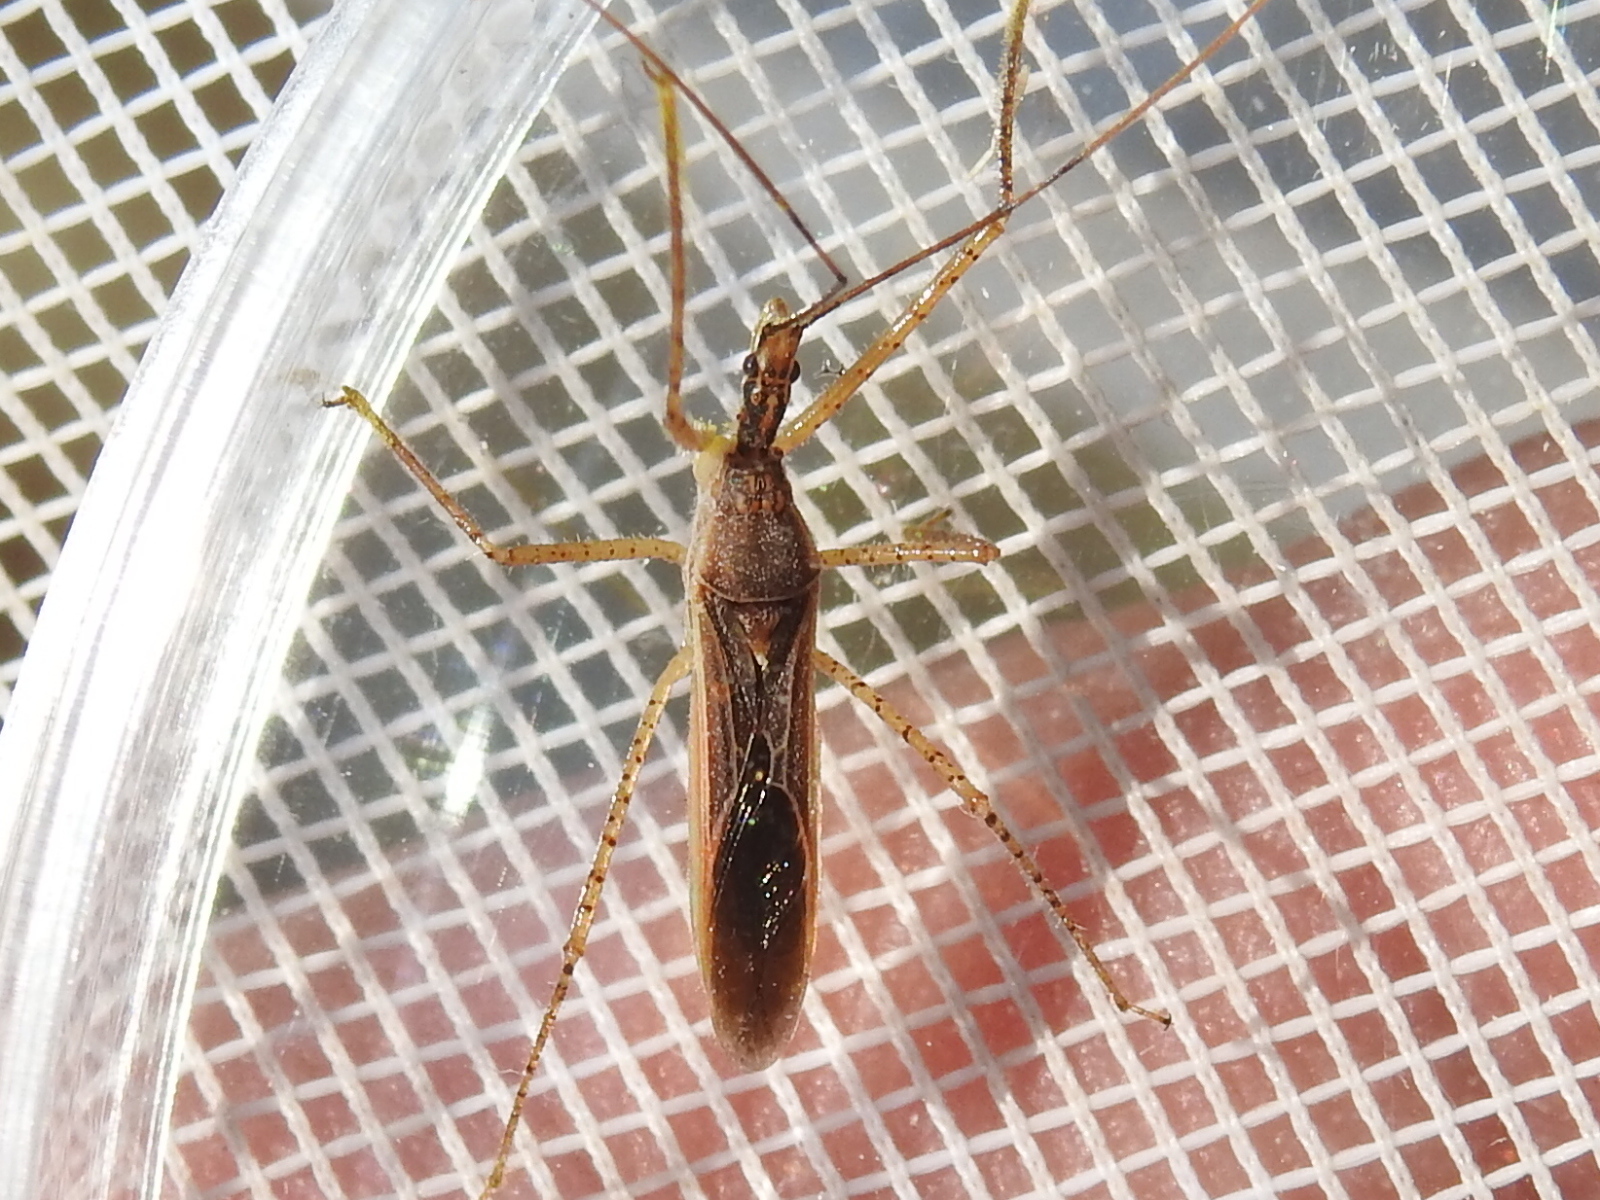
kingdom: Animalia
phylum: Arthropoda
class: Insecta
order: Hemiptera
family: Reduviidae
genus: Zelus
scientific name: Zelus cervicalis
